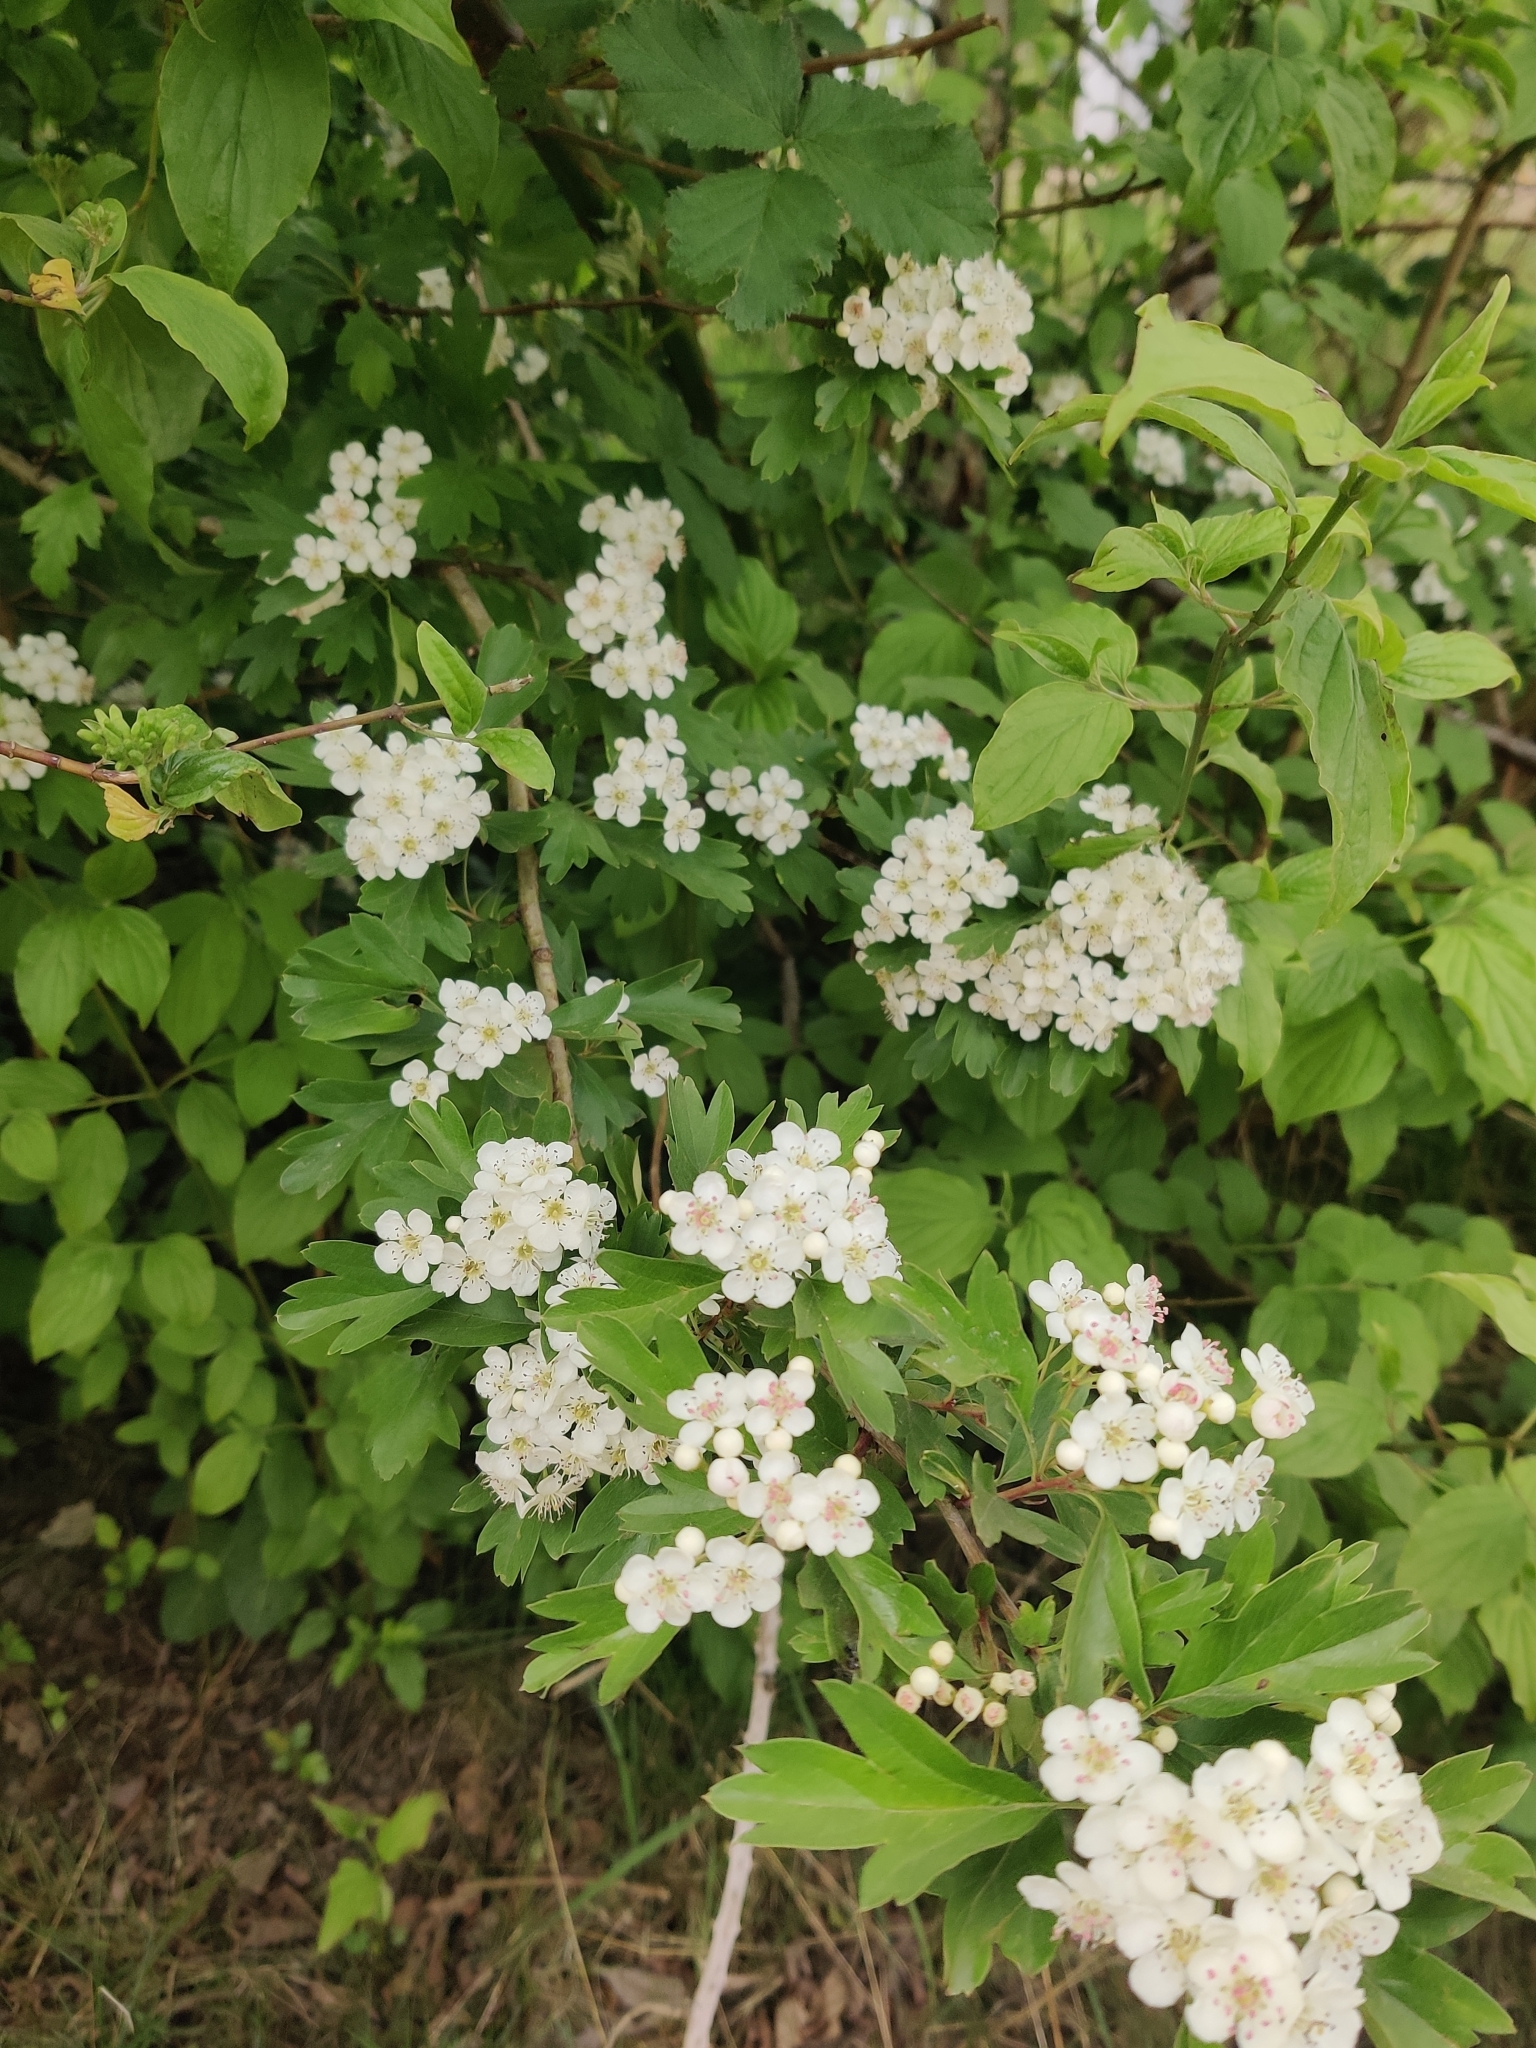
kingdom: Plantae
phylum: Tracheophyta
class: Magnoliopsida
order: Rosales
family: Rosaceae
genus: Crataegus
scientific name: Crataegus monogyna
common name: Hawthorn
